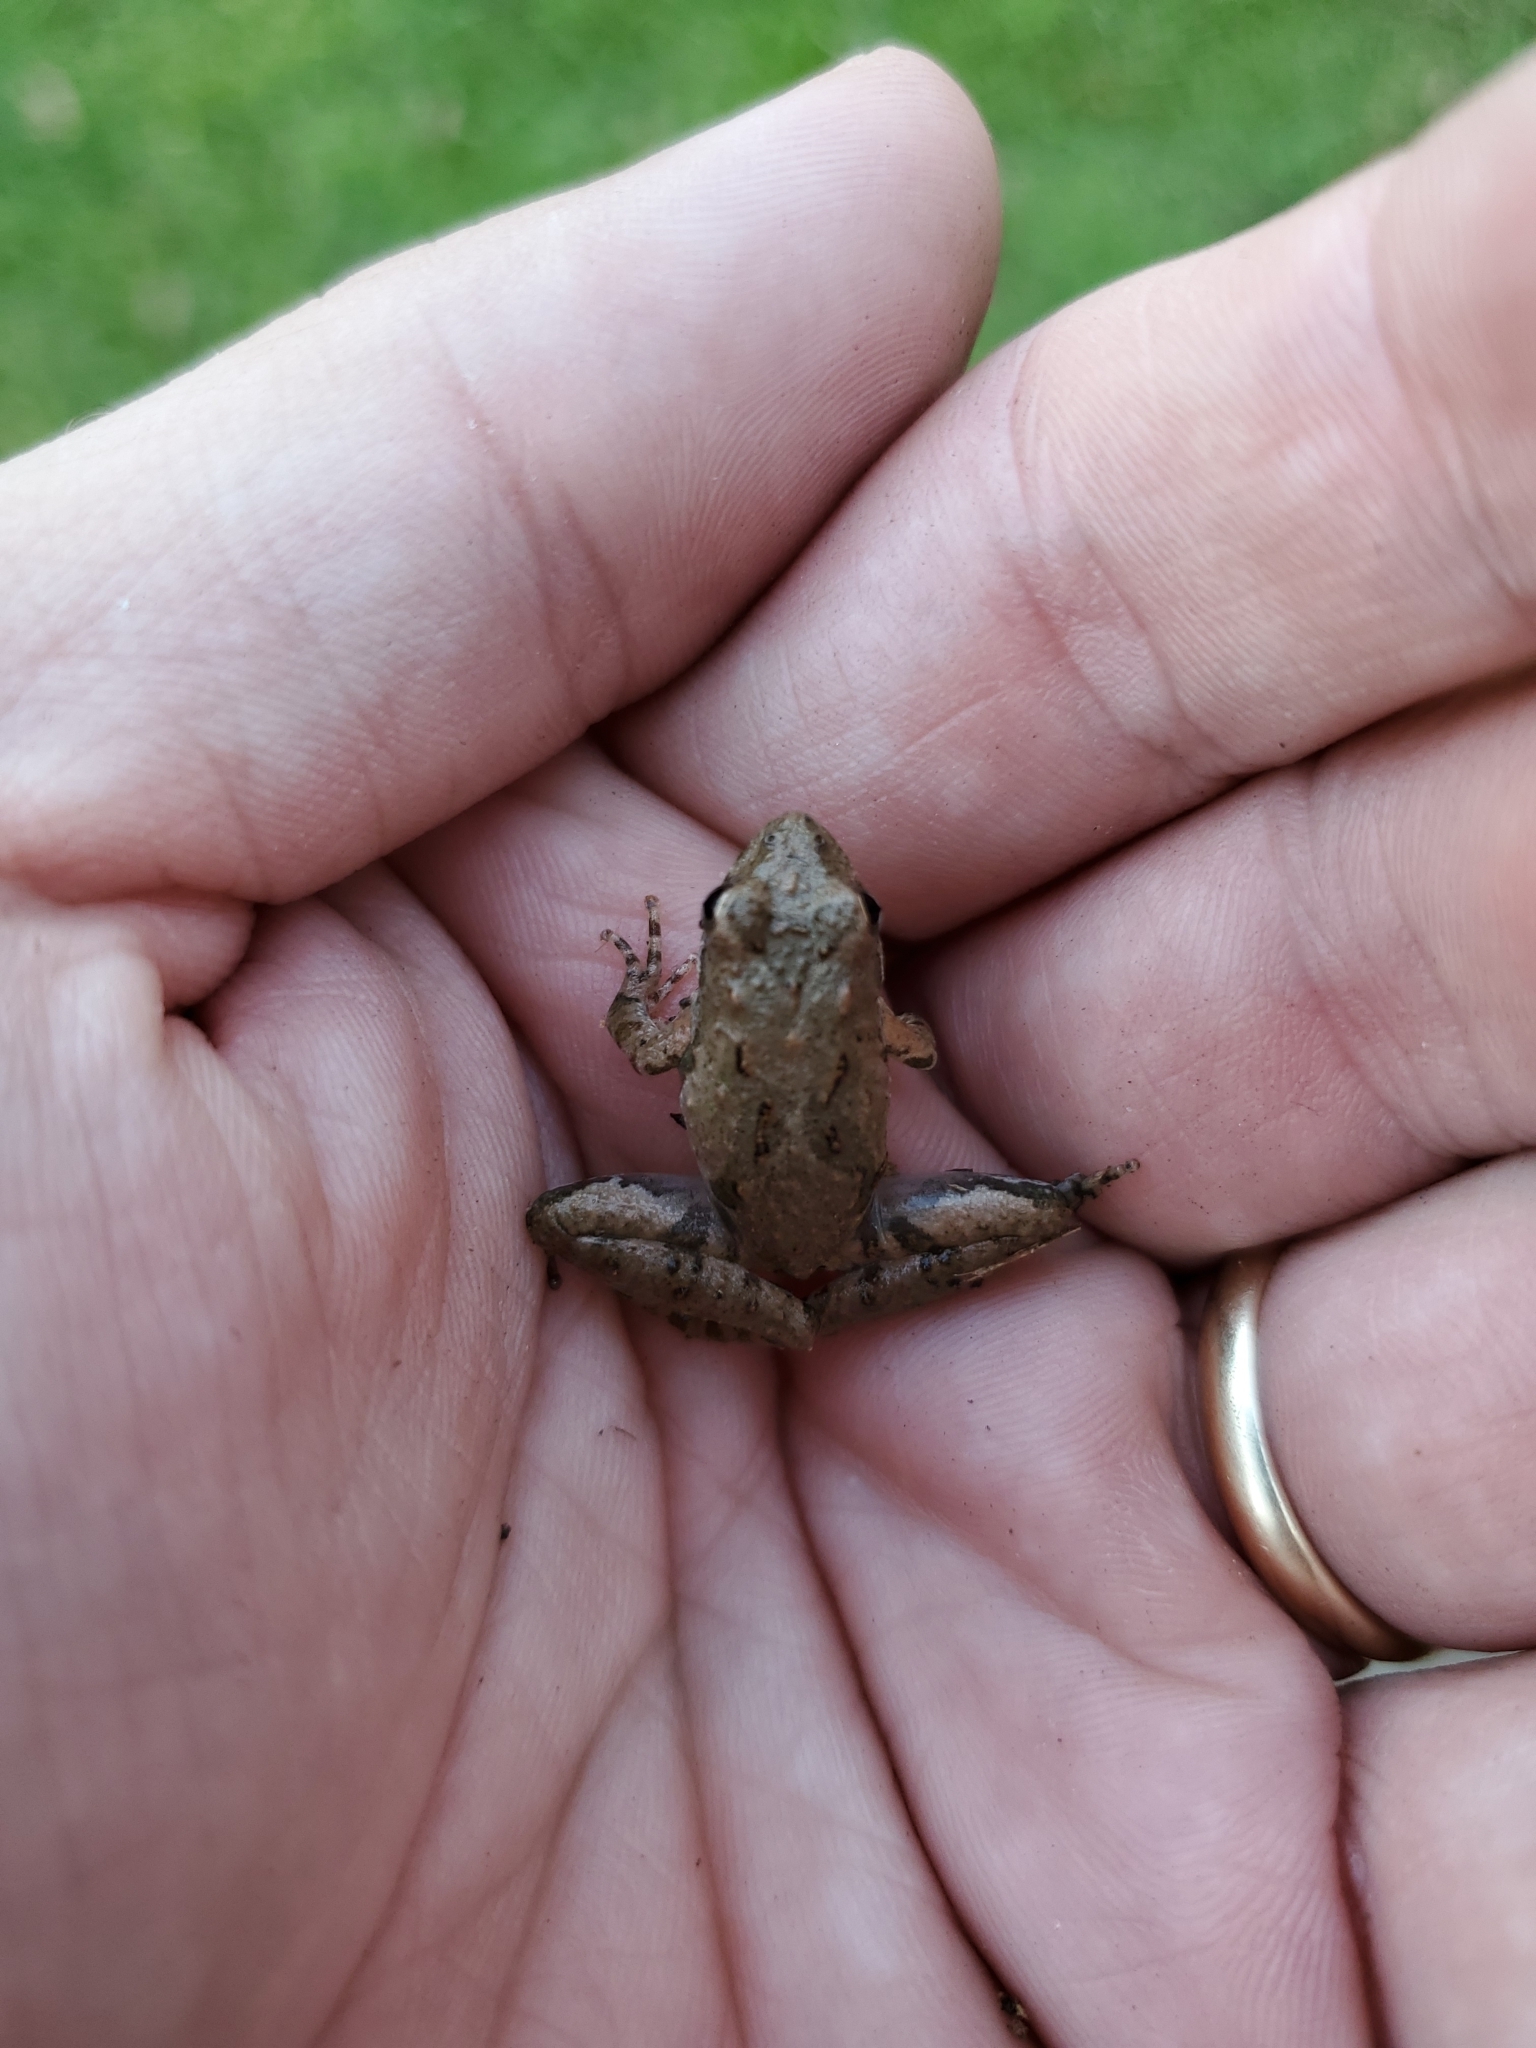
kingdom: Animalia
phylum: Chordata
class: Amphibia
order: Anura
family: Hylidae
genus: Acris
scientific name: Acris blanchardi
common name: Blanchard's cricket frog
